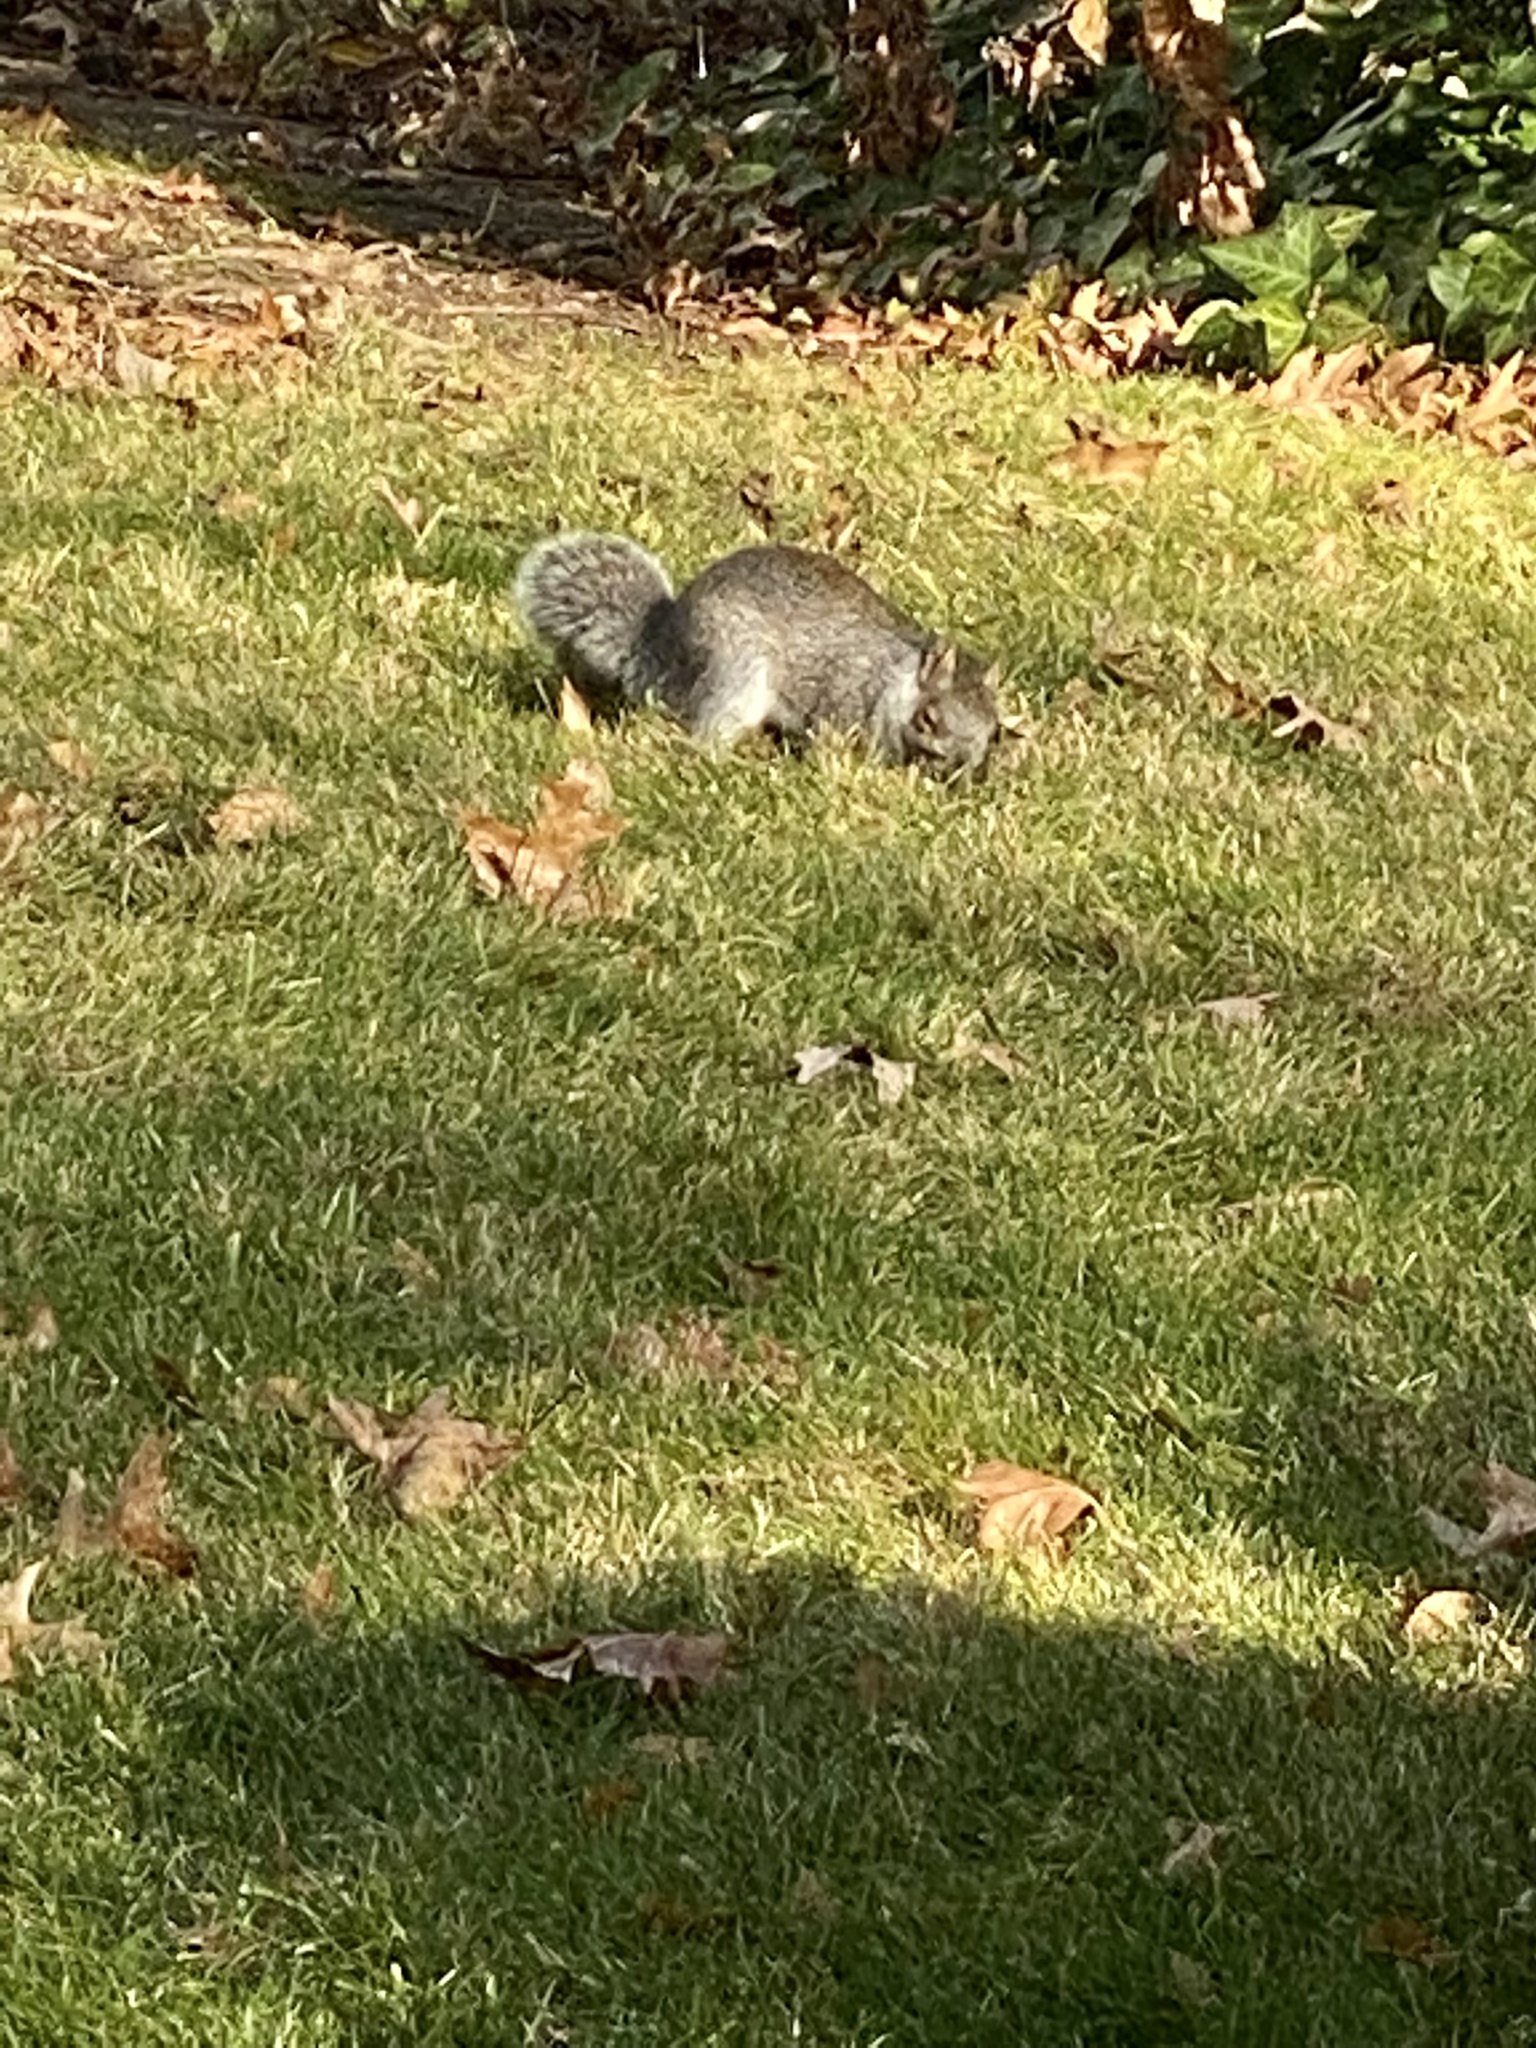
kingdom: Animalia
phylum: Chordata
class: Mammalia
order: Rodentia
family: Sciuridae
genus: Sciurus
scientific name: Sciurus carolinensis
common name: Eastern gray squirrel
